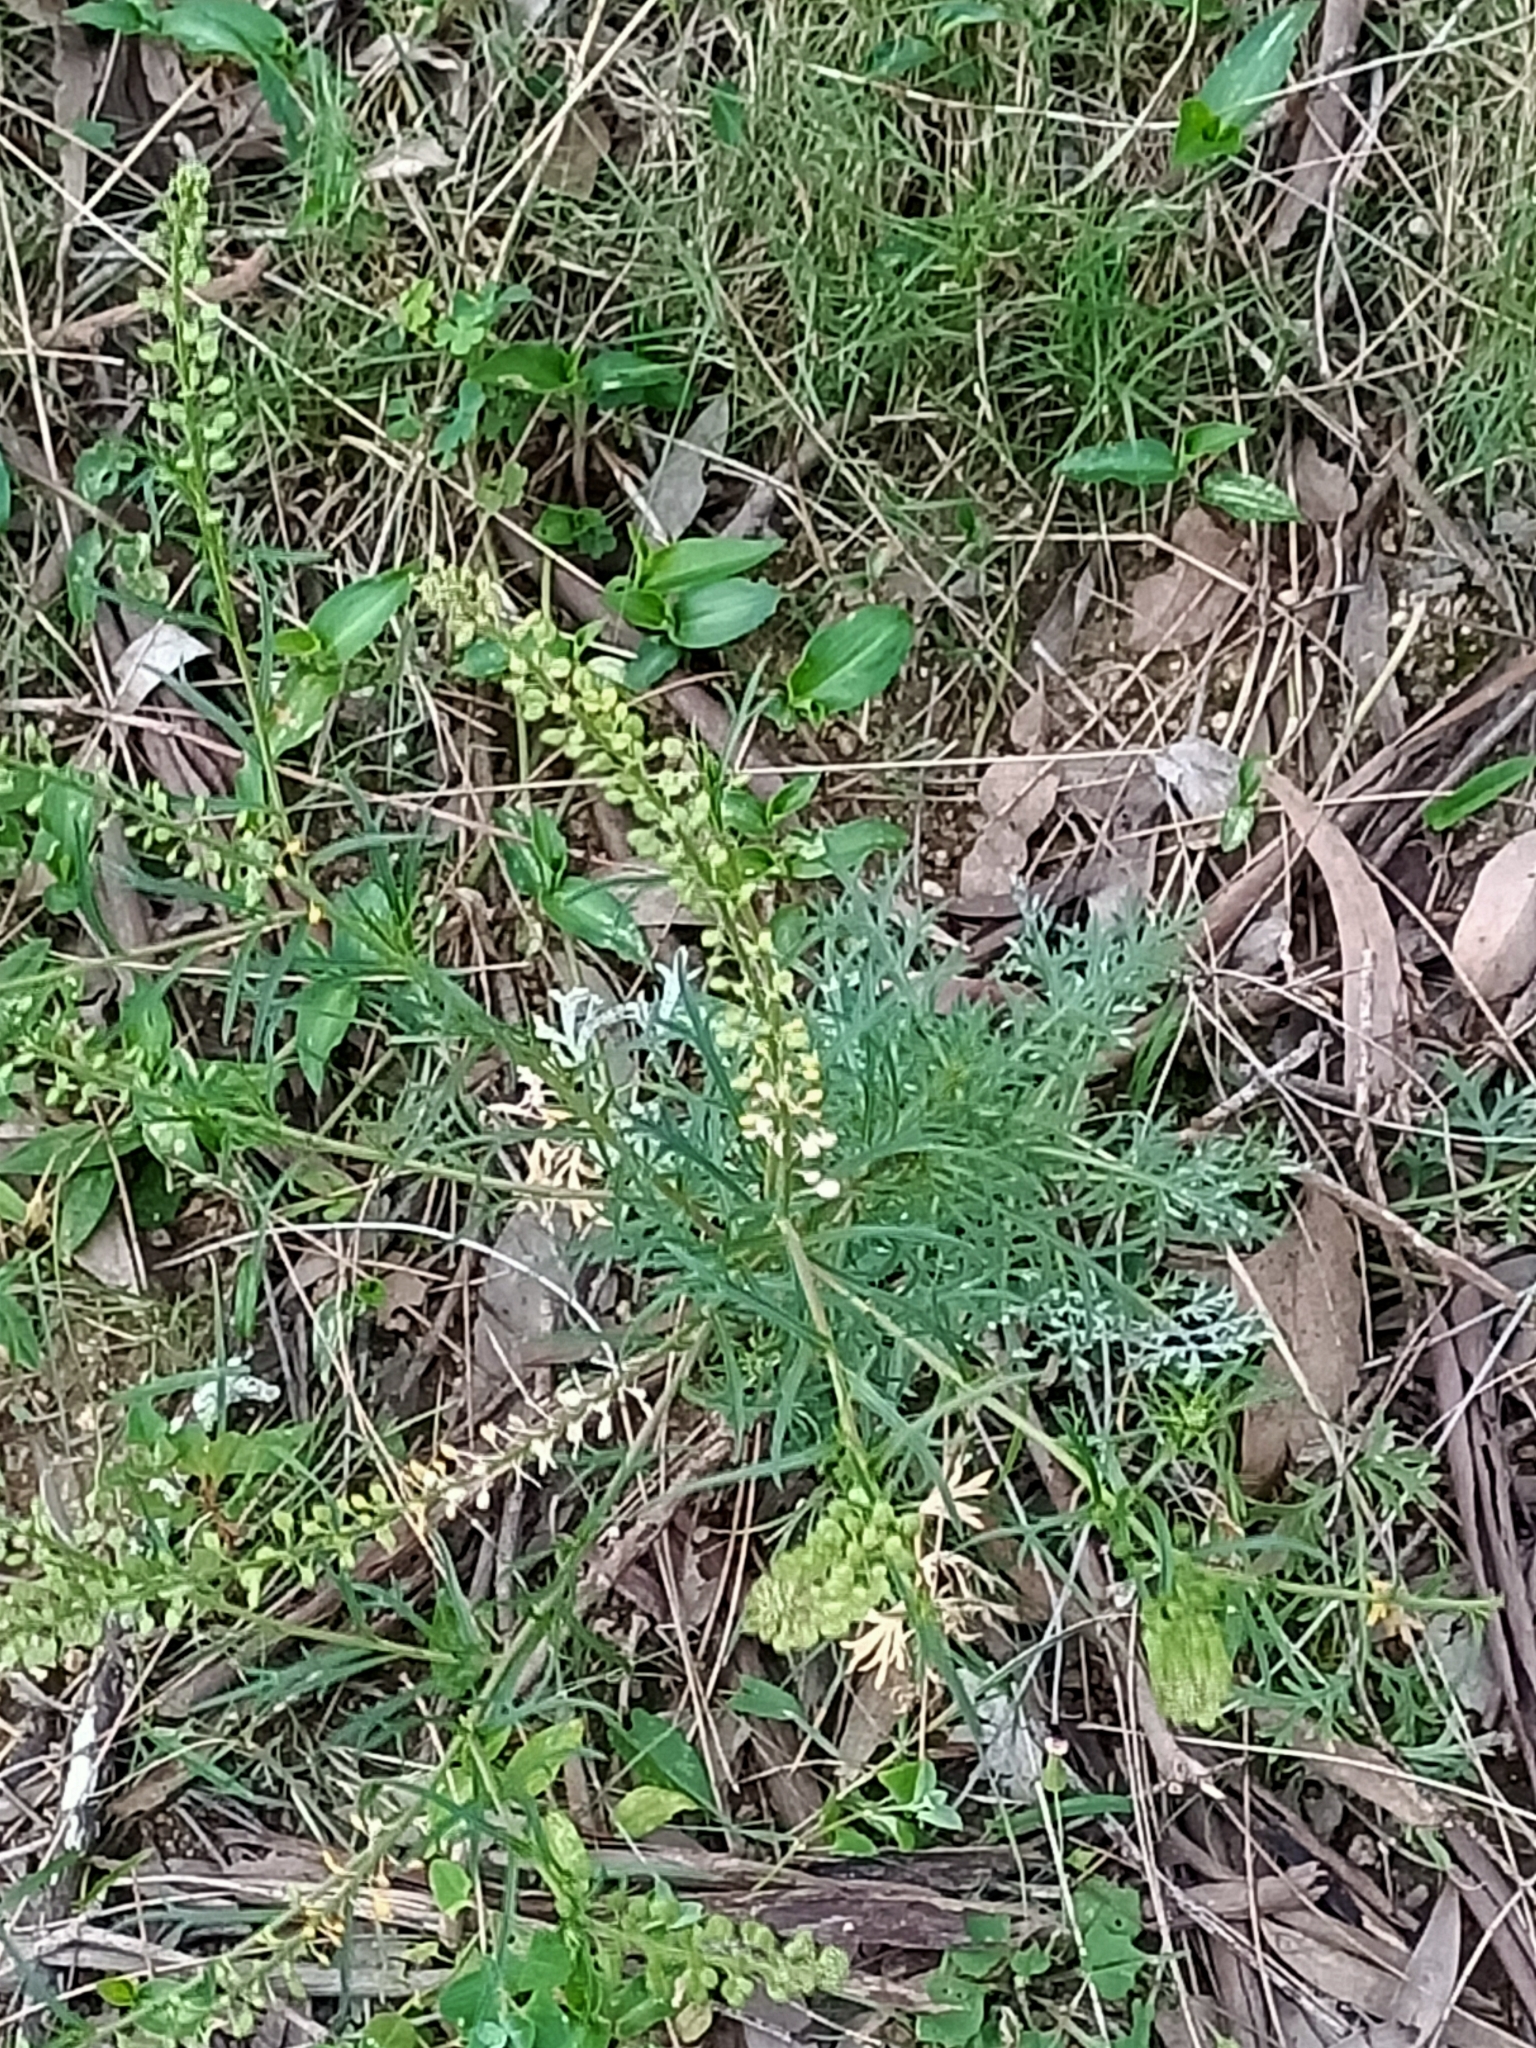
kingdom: Plantae
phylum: Tracheophyta
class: Magnoliopsida
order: Brassicales
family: Brassicaceae
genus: Lepidium
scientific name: Lepidium bonariense
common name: Argentine pepperwort
